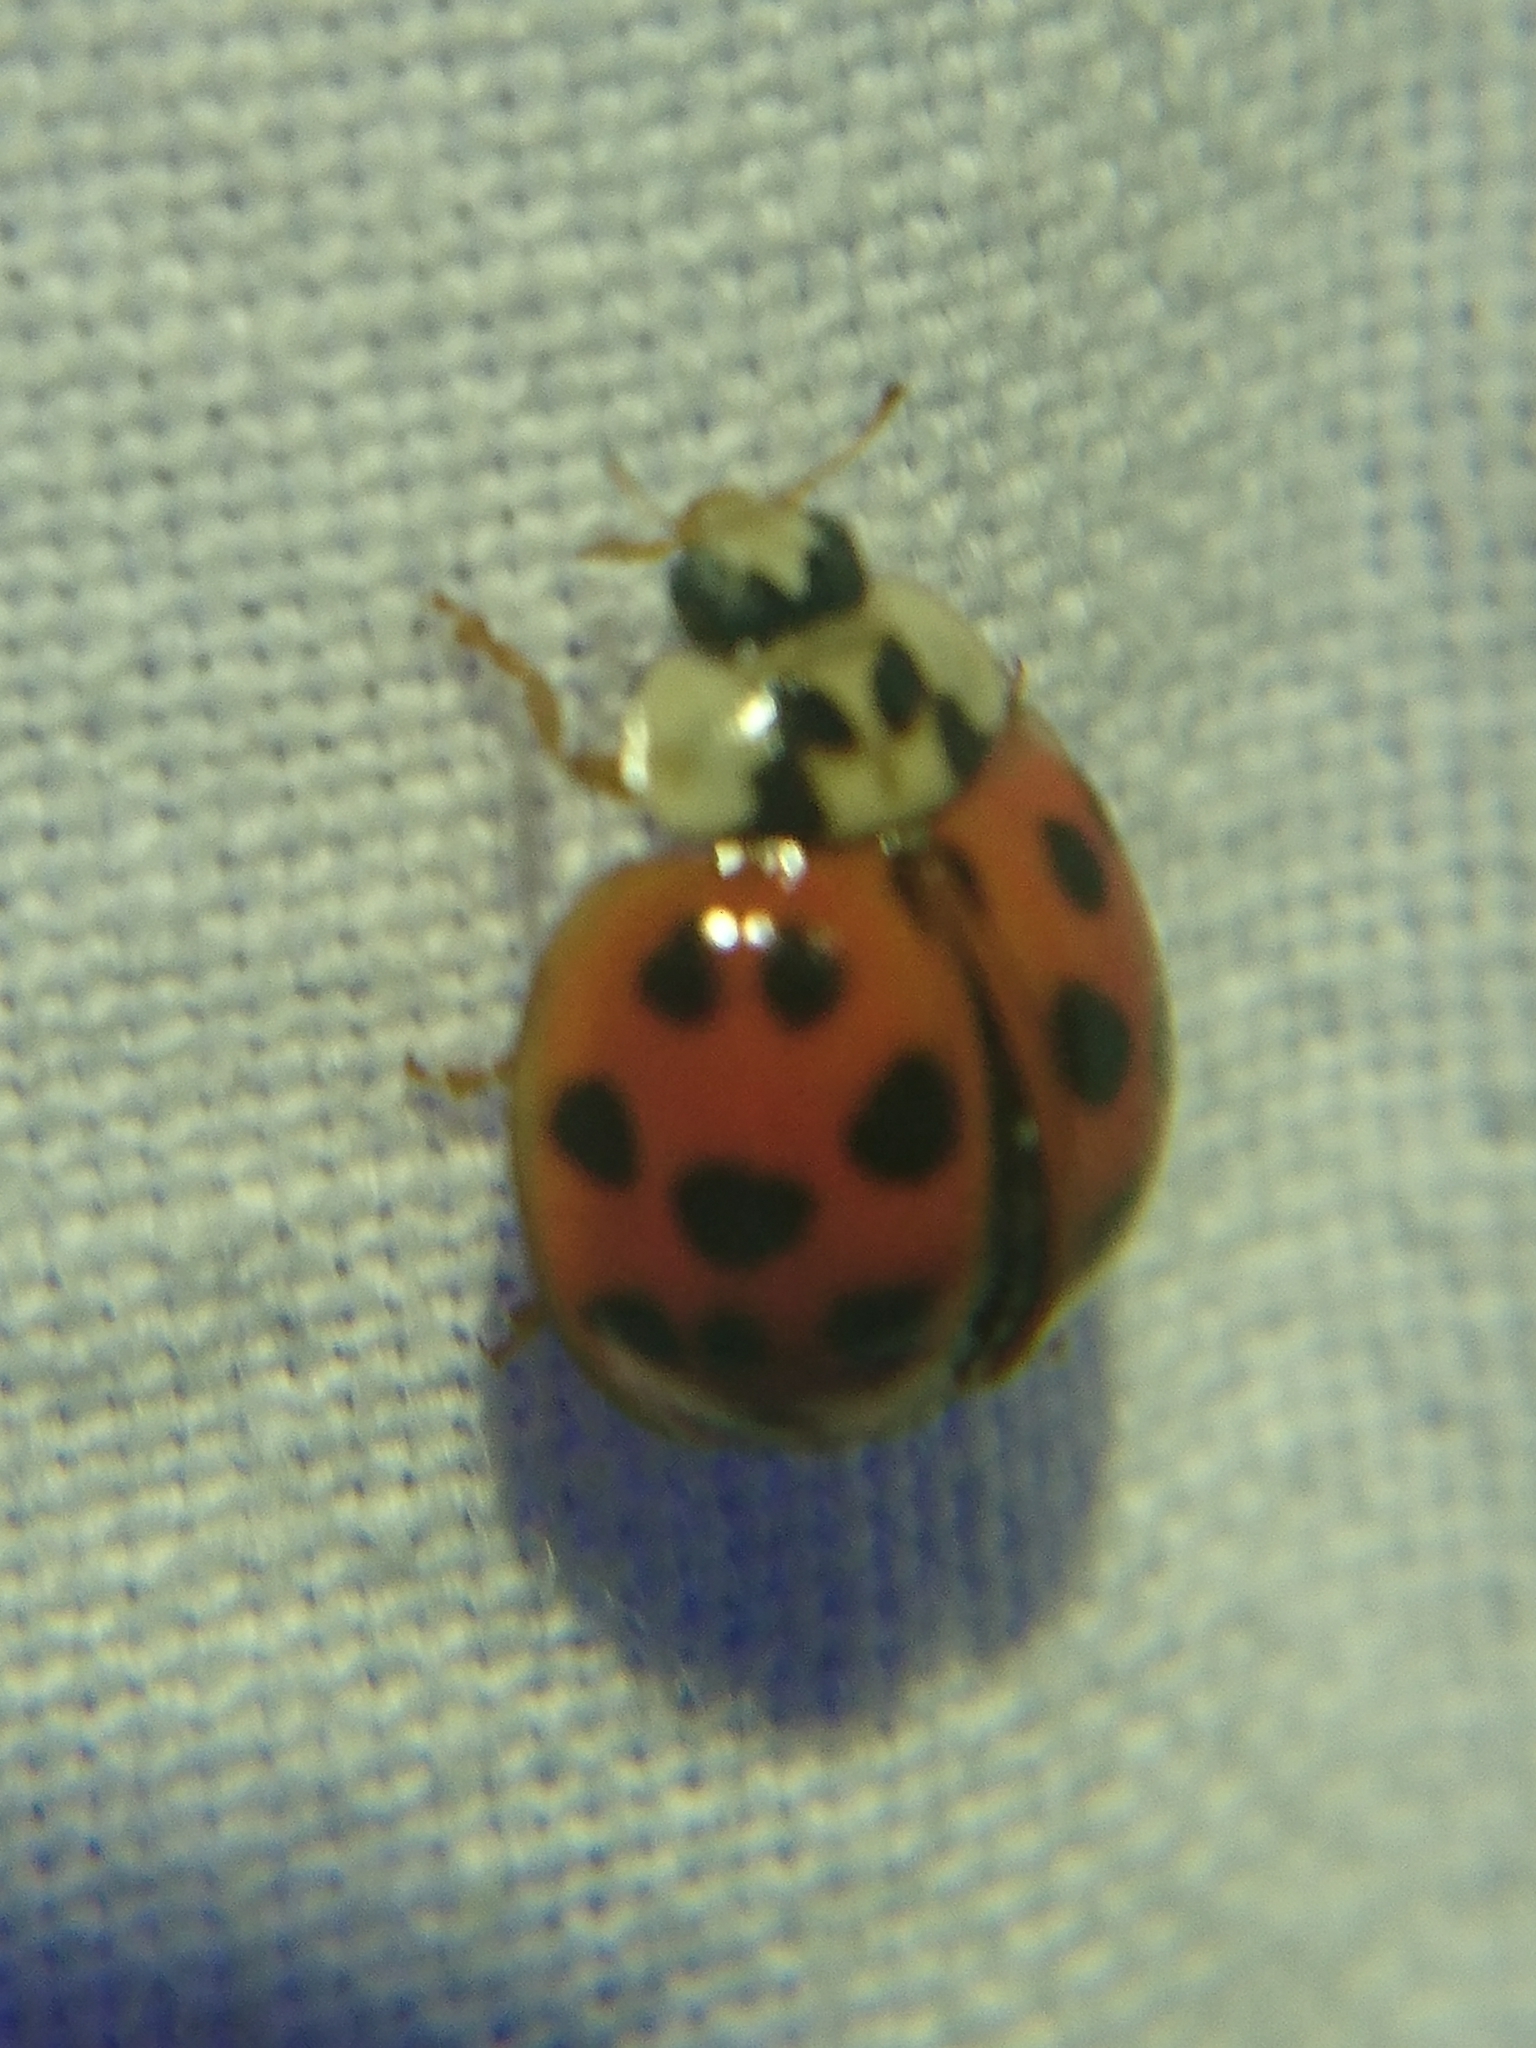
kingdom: Animalia
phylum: Arthropoda
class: Insecta
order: Coleoptera
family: Coccinellidae
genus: Harmonia
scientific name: Harmonia axyridis
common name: Harlequin ladybird
